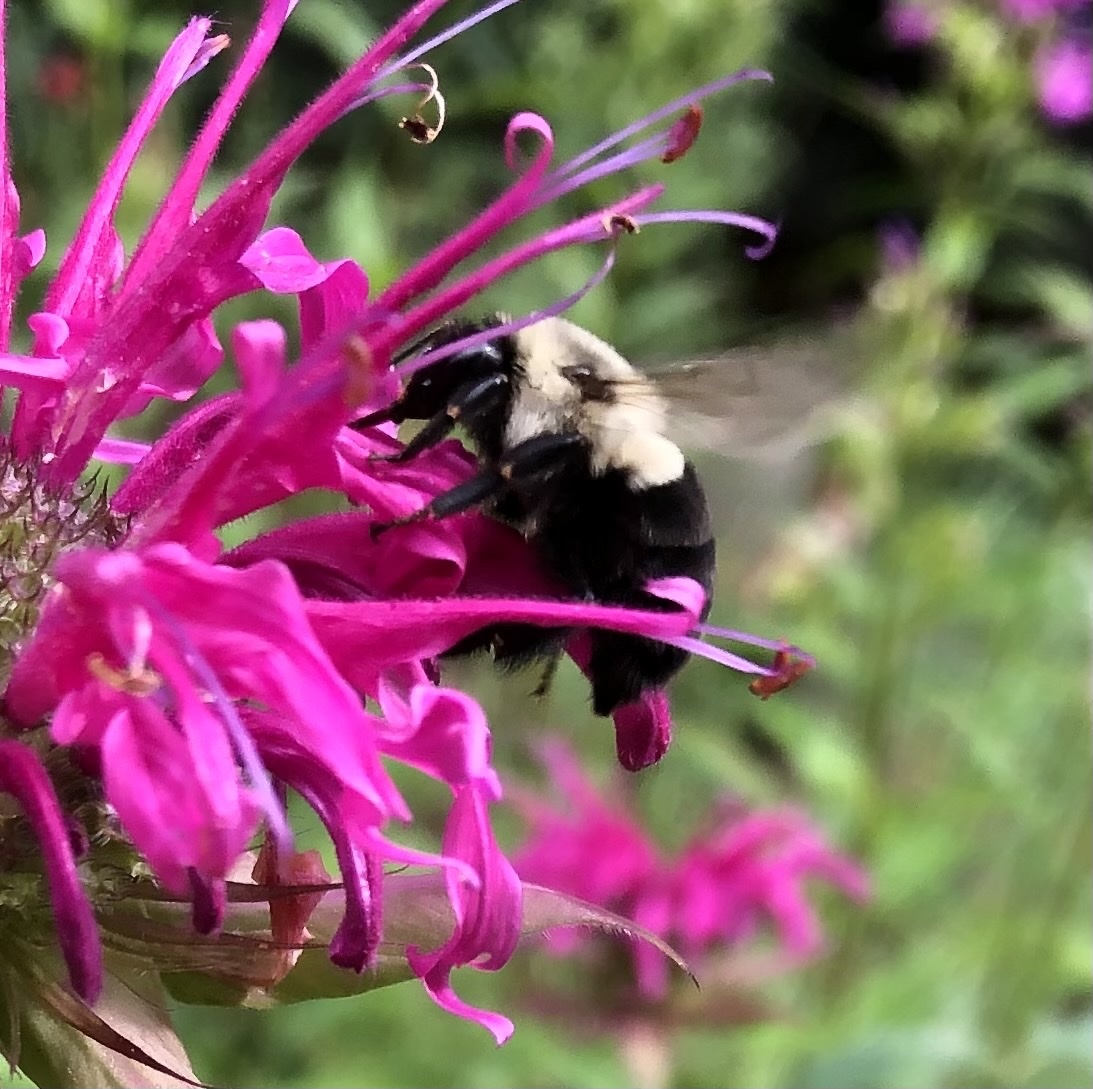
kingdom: Animalia
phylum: Arthropoda
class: Insecta
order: Hymenoptera
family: Apidae
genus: Bombus
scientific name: Bombus impatiens
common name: Common eastern bumble bee
